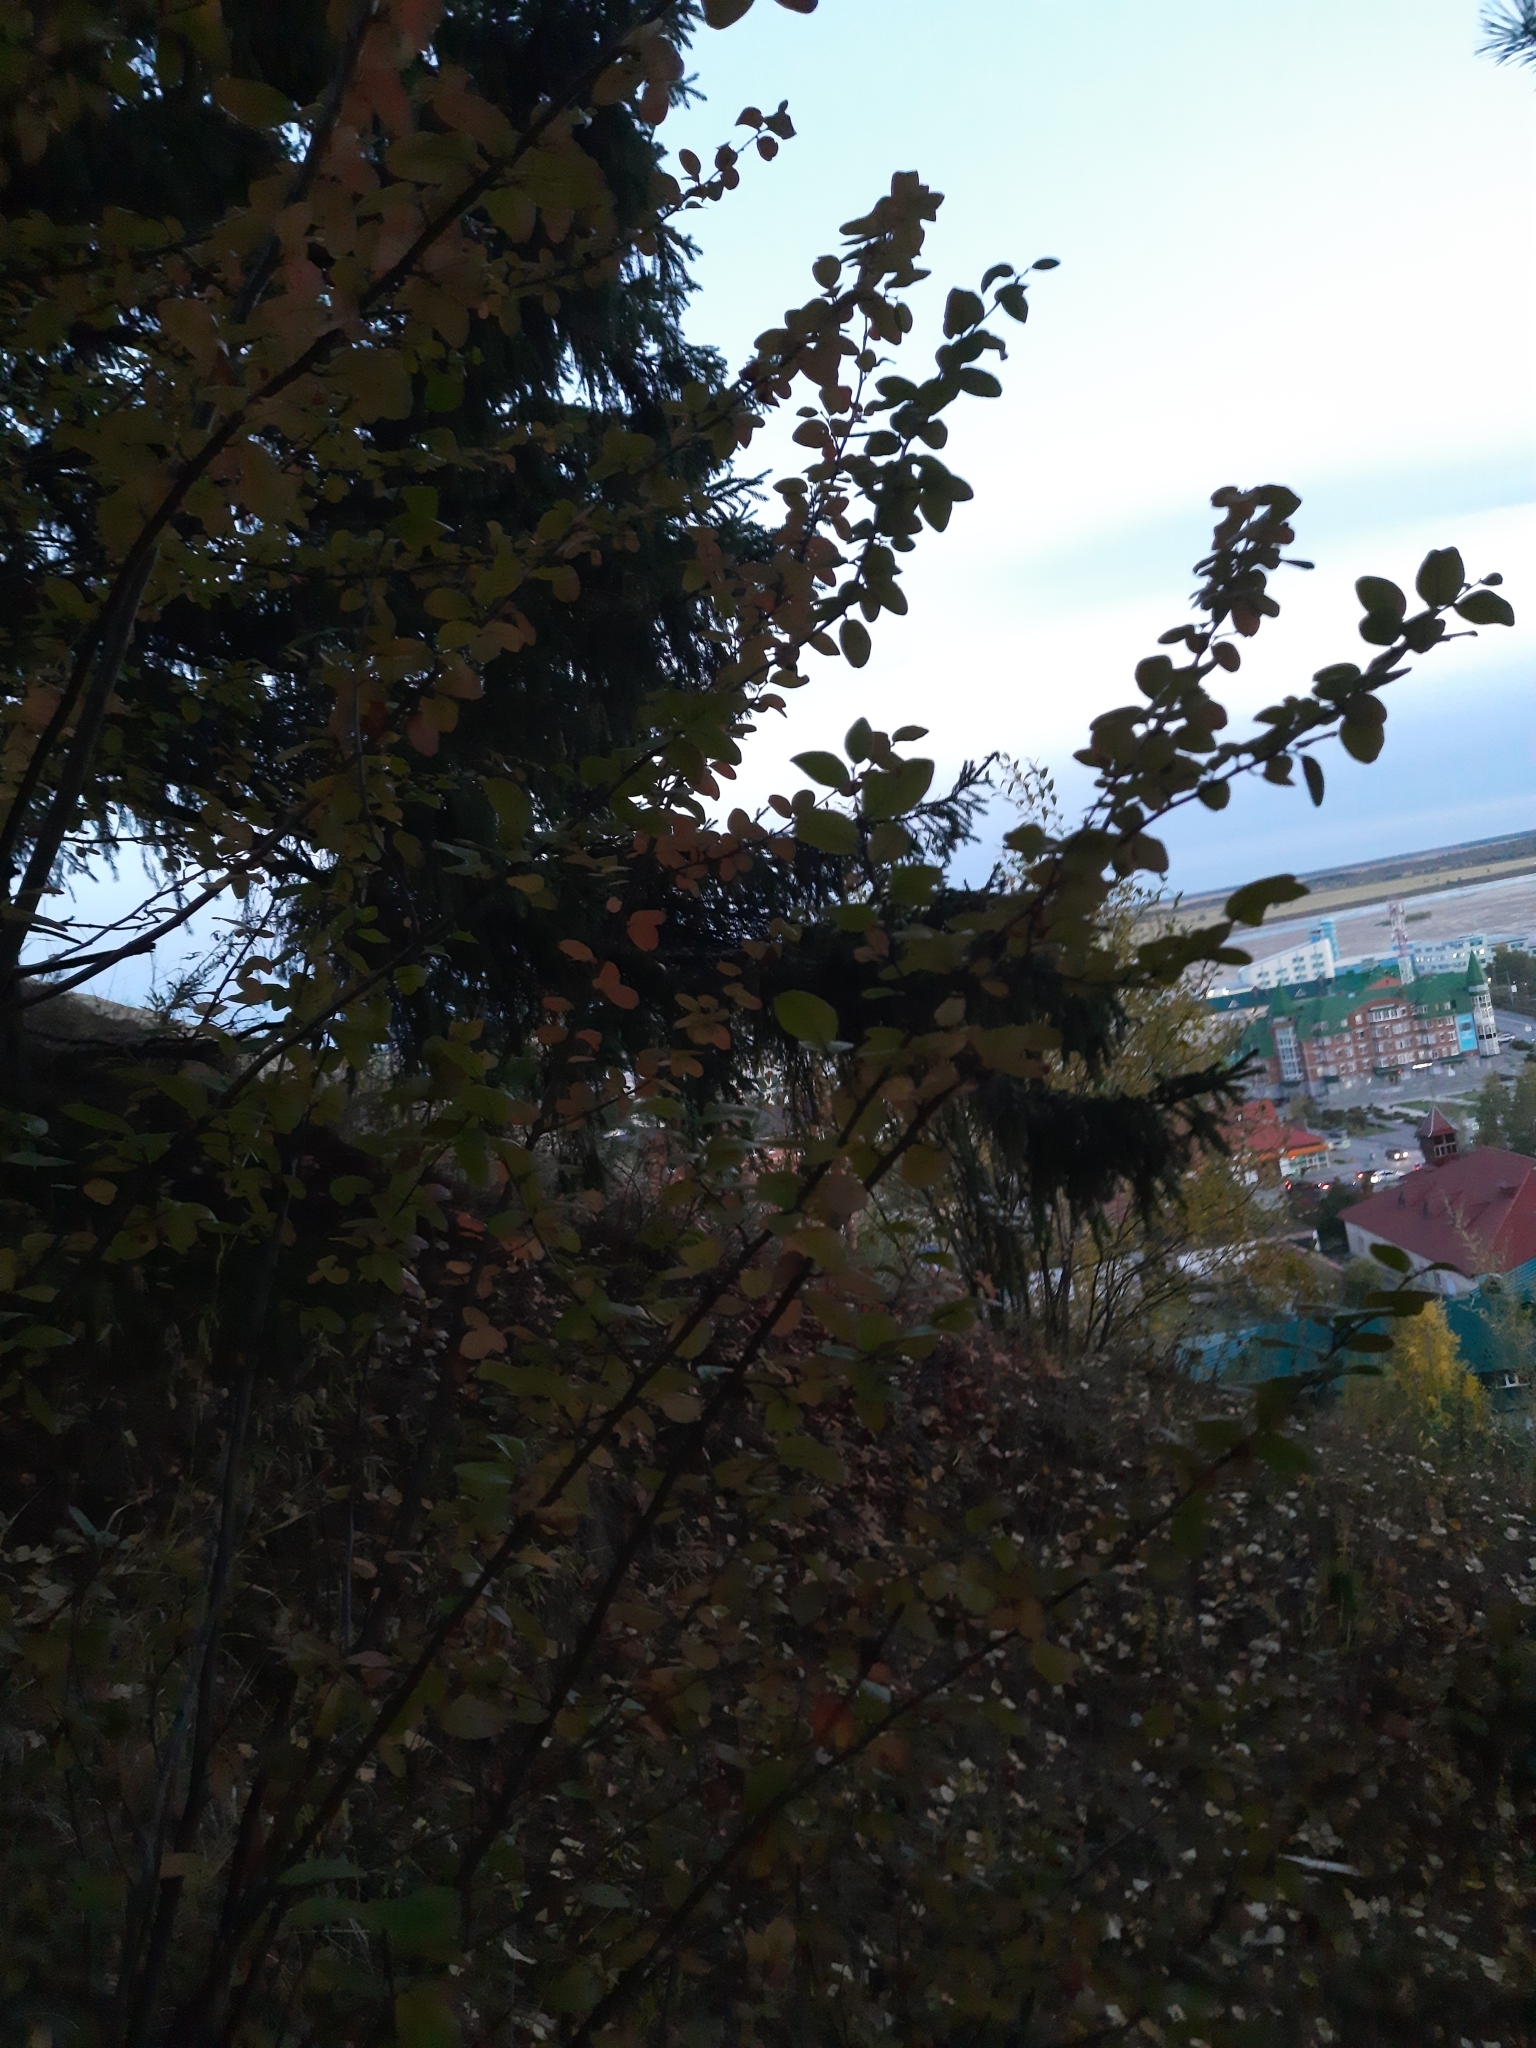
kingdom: Plantae
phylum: Tracheophyta
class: Magnoliopsida
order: Rosales
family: Rosaceae
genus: Cotoneaster
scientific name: Cotoneaster melanocarpus
